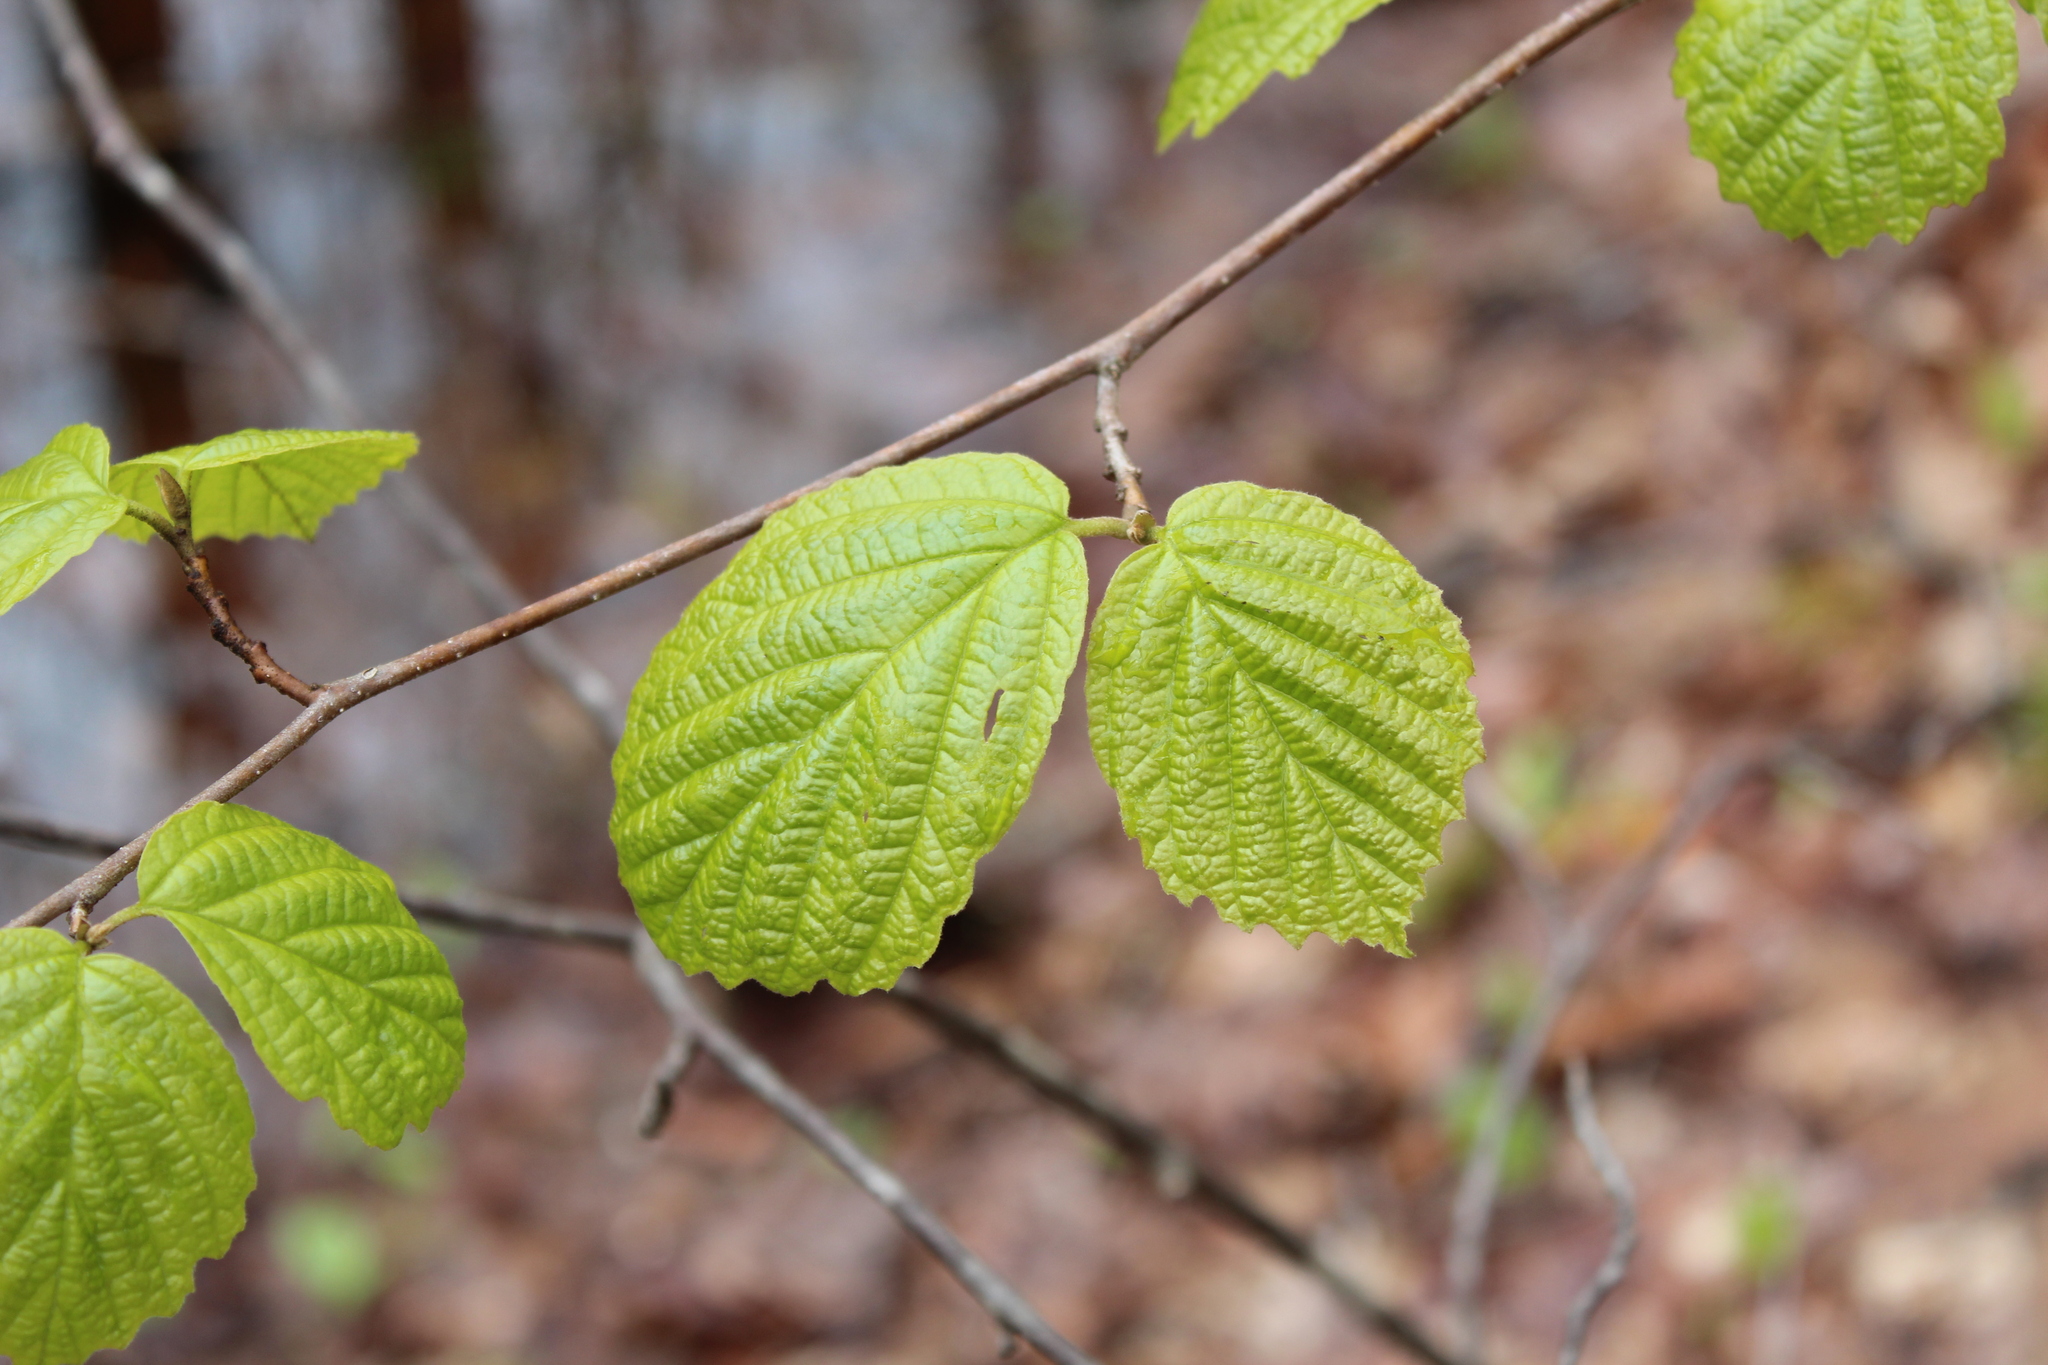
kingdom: Plantae
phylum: Tracheophyta
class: Magnoliopsida
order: Saxifragales
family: Hamamelidaceae
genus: Hamamelis
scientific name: Hamamelis virginiana
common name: Witch-hazel
